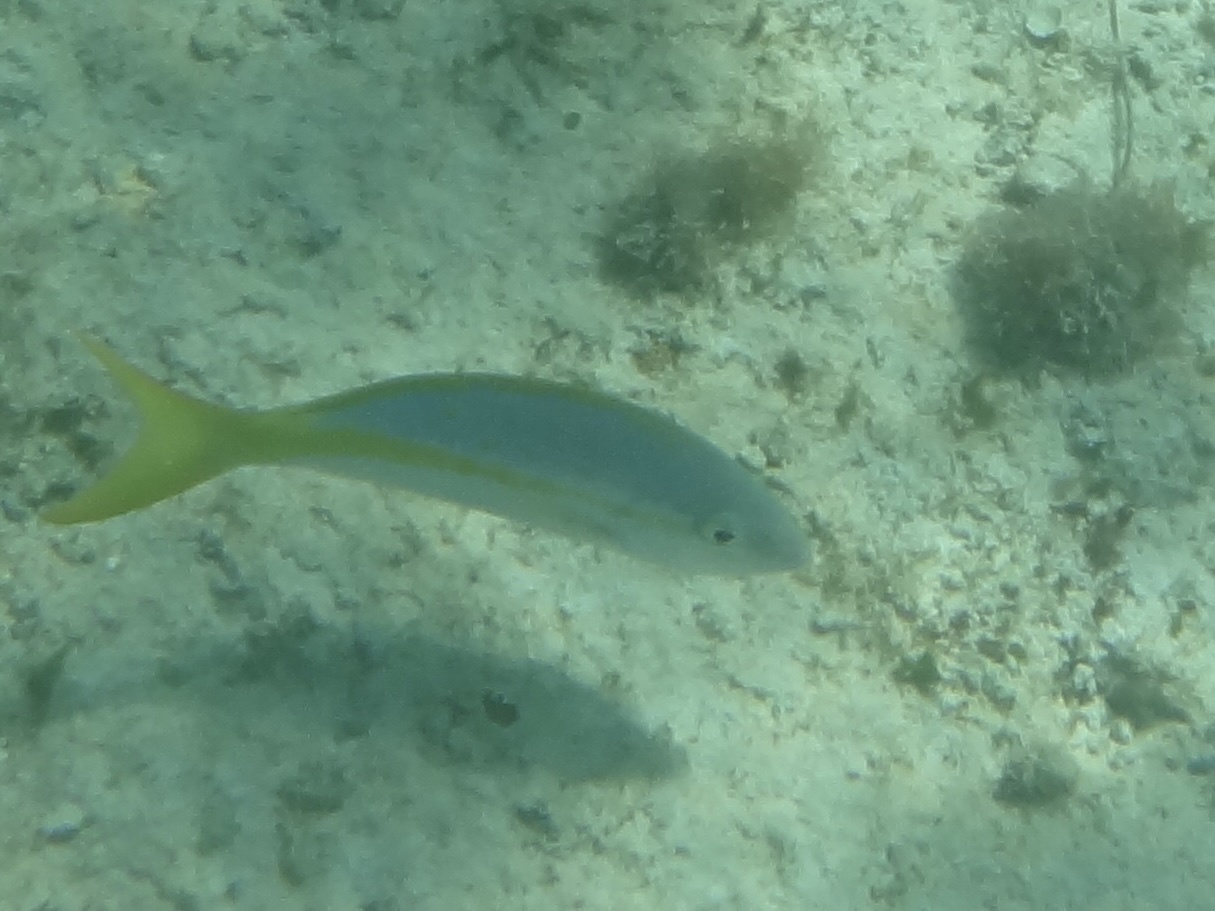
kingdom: Animalia
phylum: Chordata
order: Perciformes
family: Lutjanidae
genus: Ocyurus
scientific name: Ocyurus chrysurus
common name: Yellowtail snapper
